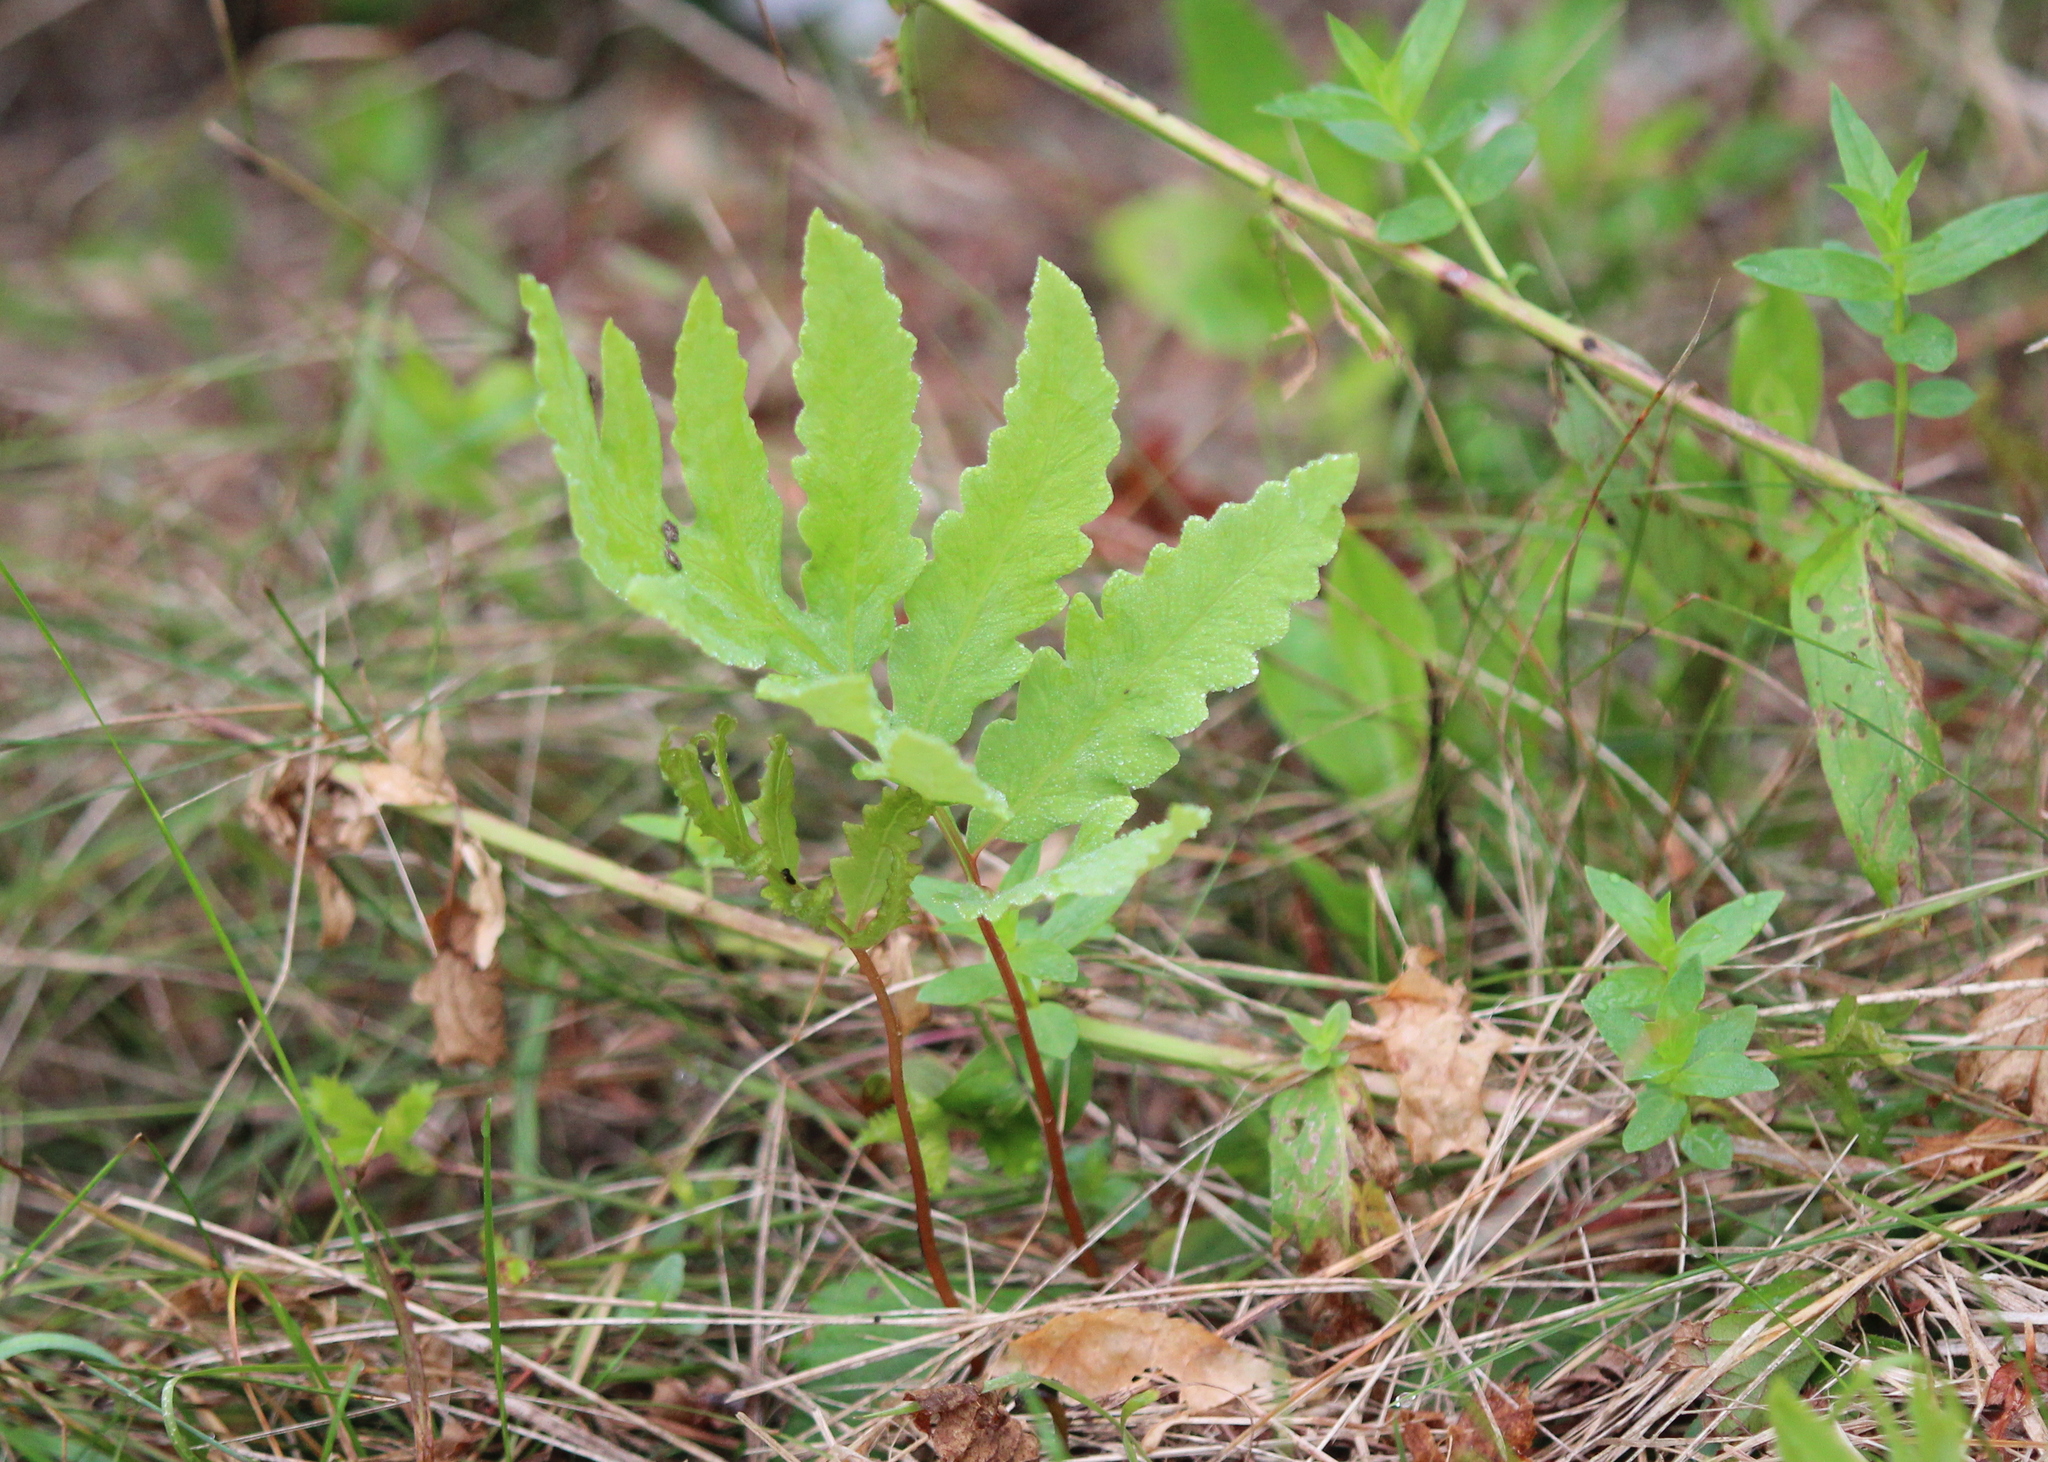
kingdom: Plantae
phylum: Tracheophyta
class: Polypodiopsida
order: Polypodiales
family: Onocleaceae
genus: Onoclea
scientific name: Onoclea sensibilis
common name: Sensitive fern
